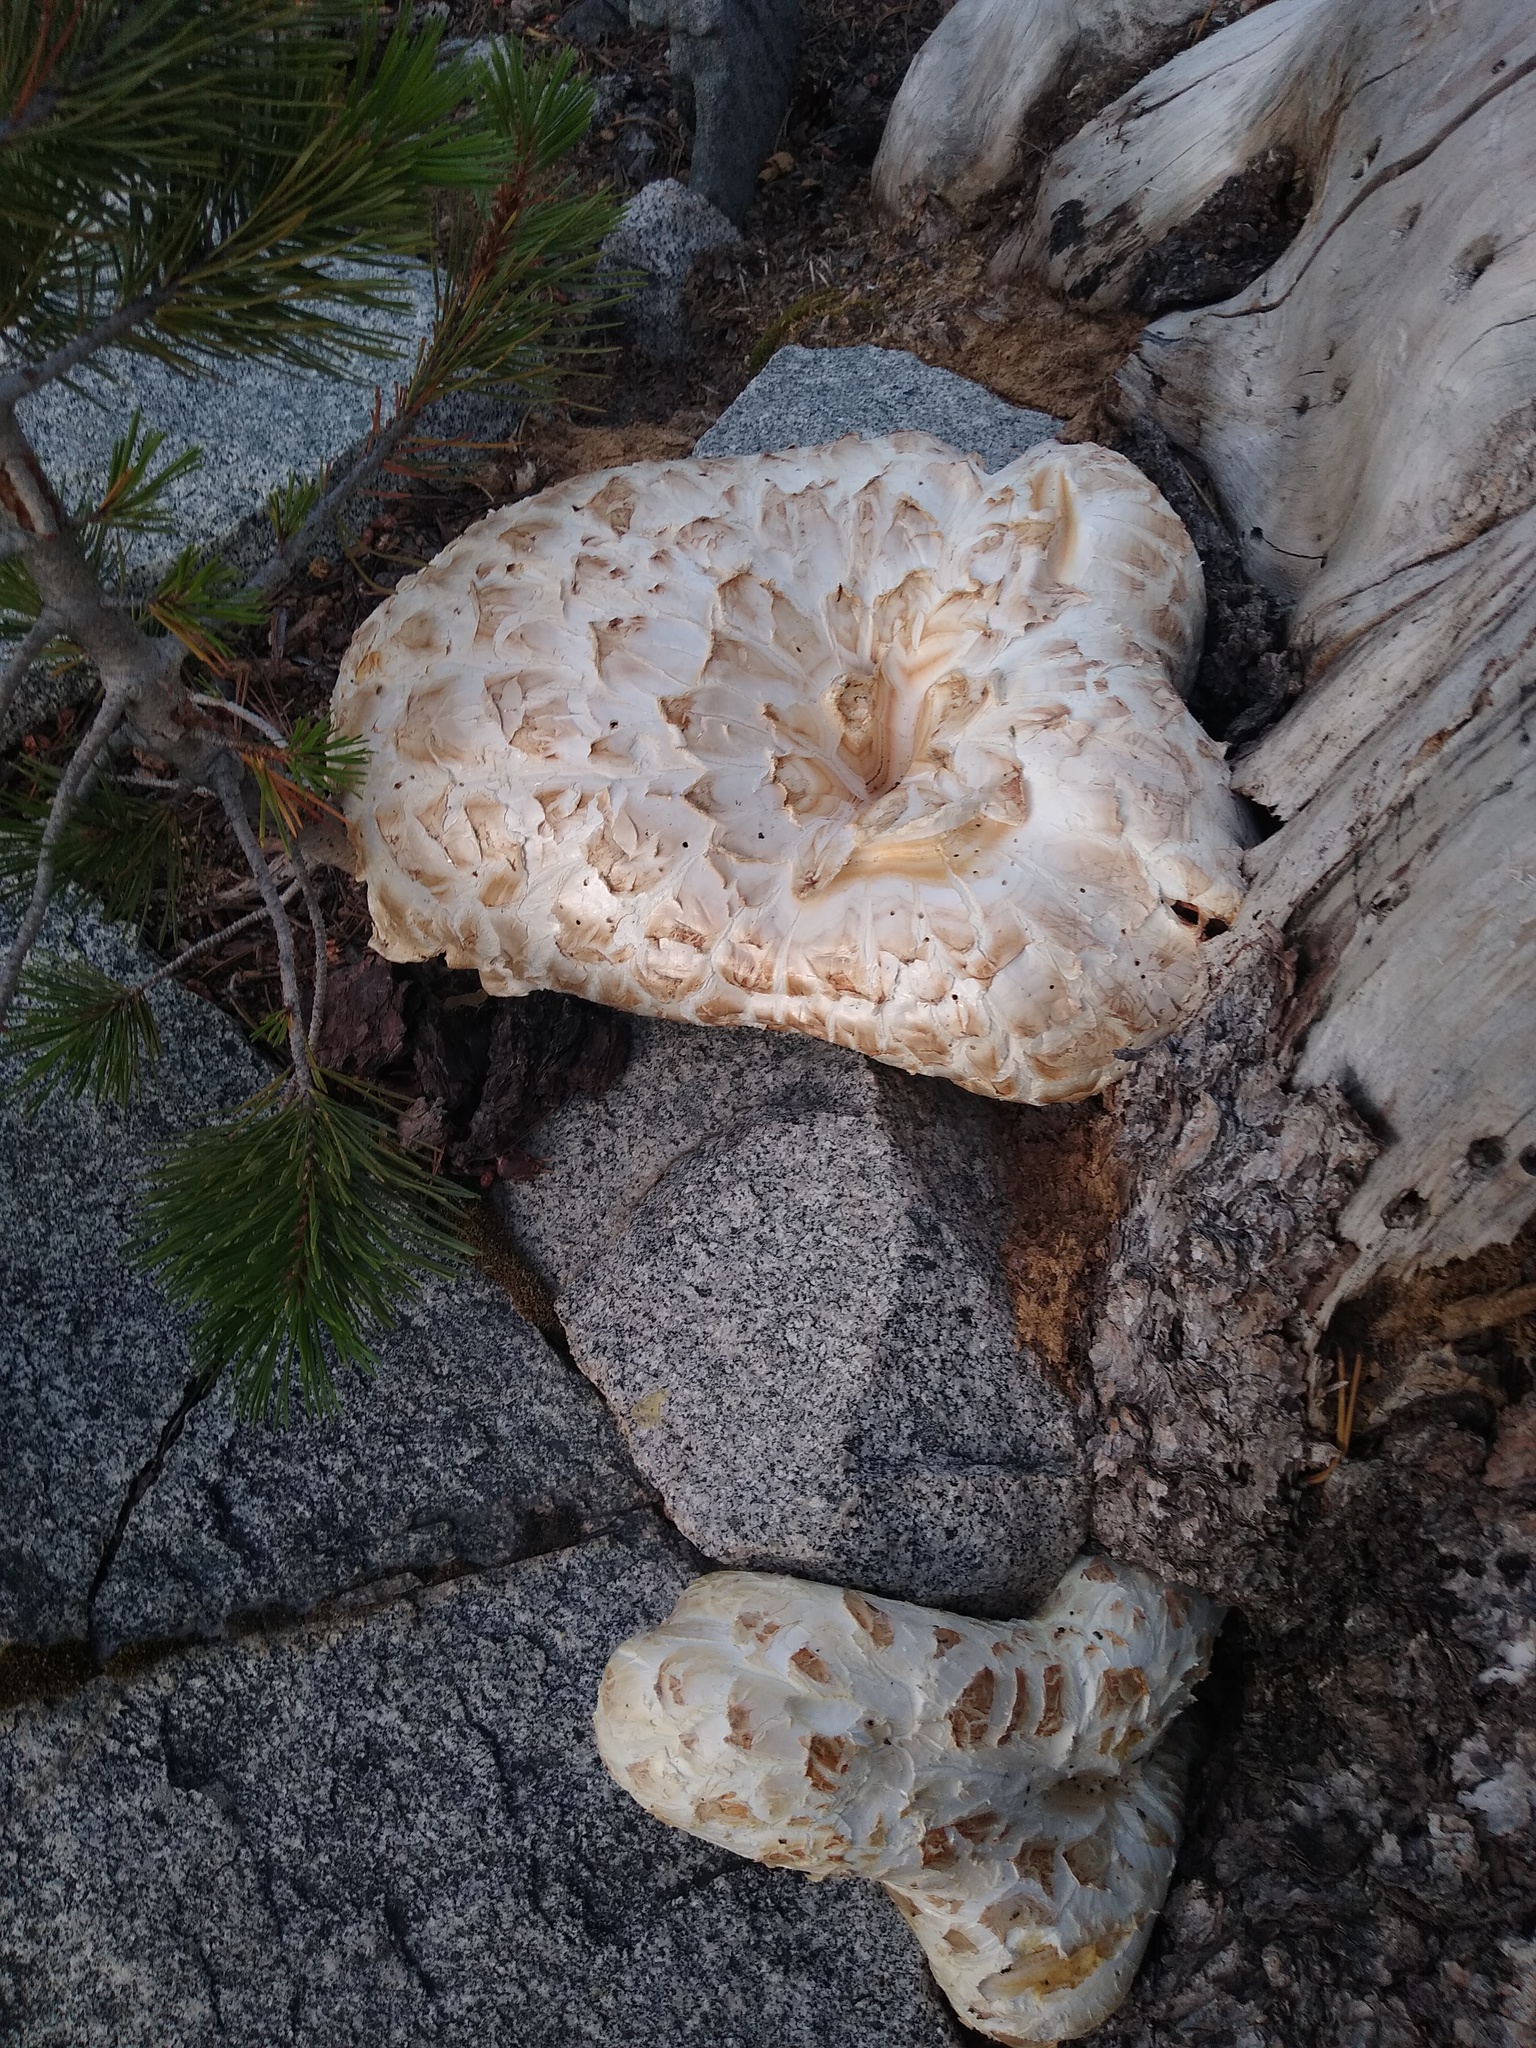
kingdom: Fungi
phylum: Basidiomycota
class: Agaricomycetes
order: Gloeophyllales
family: Gloeophyllaceae
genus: Neolentinus
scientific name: Neolentinus ponderosus
